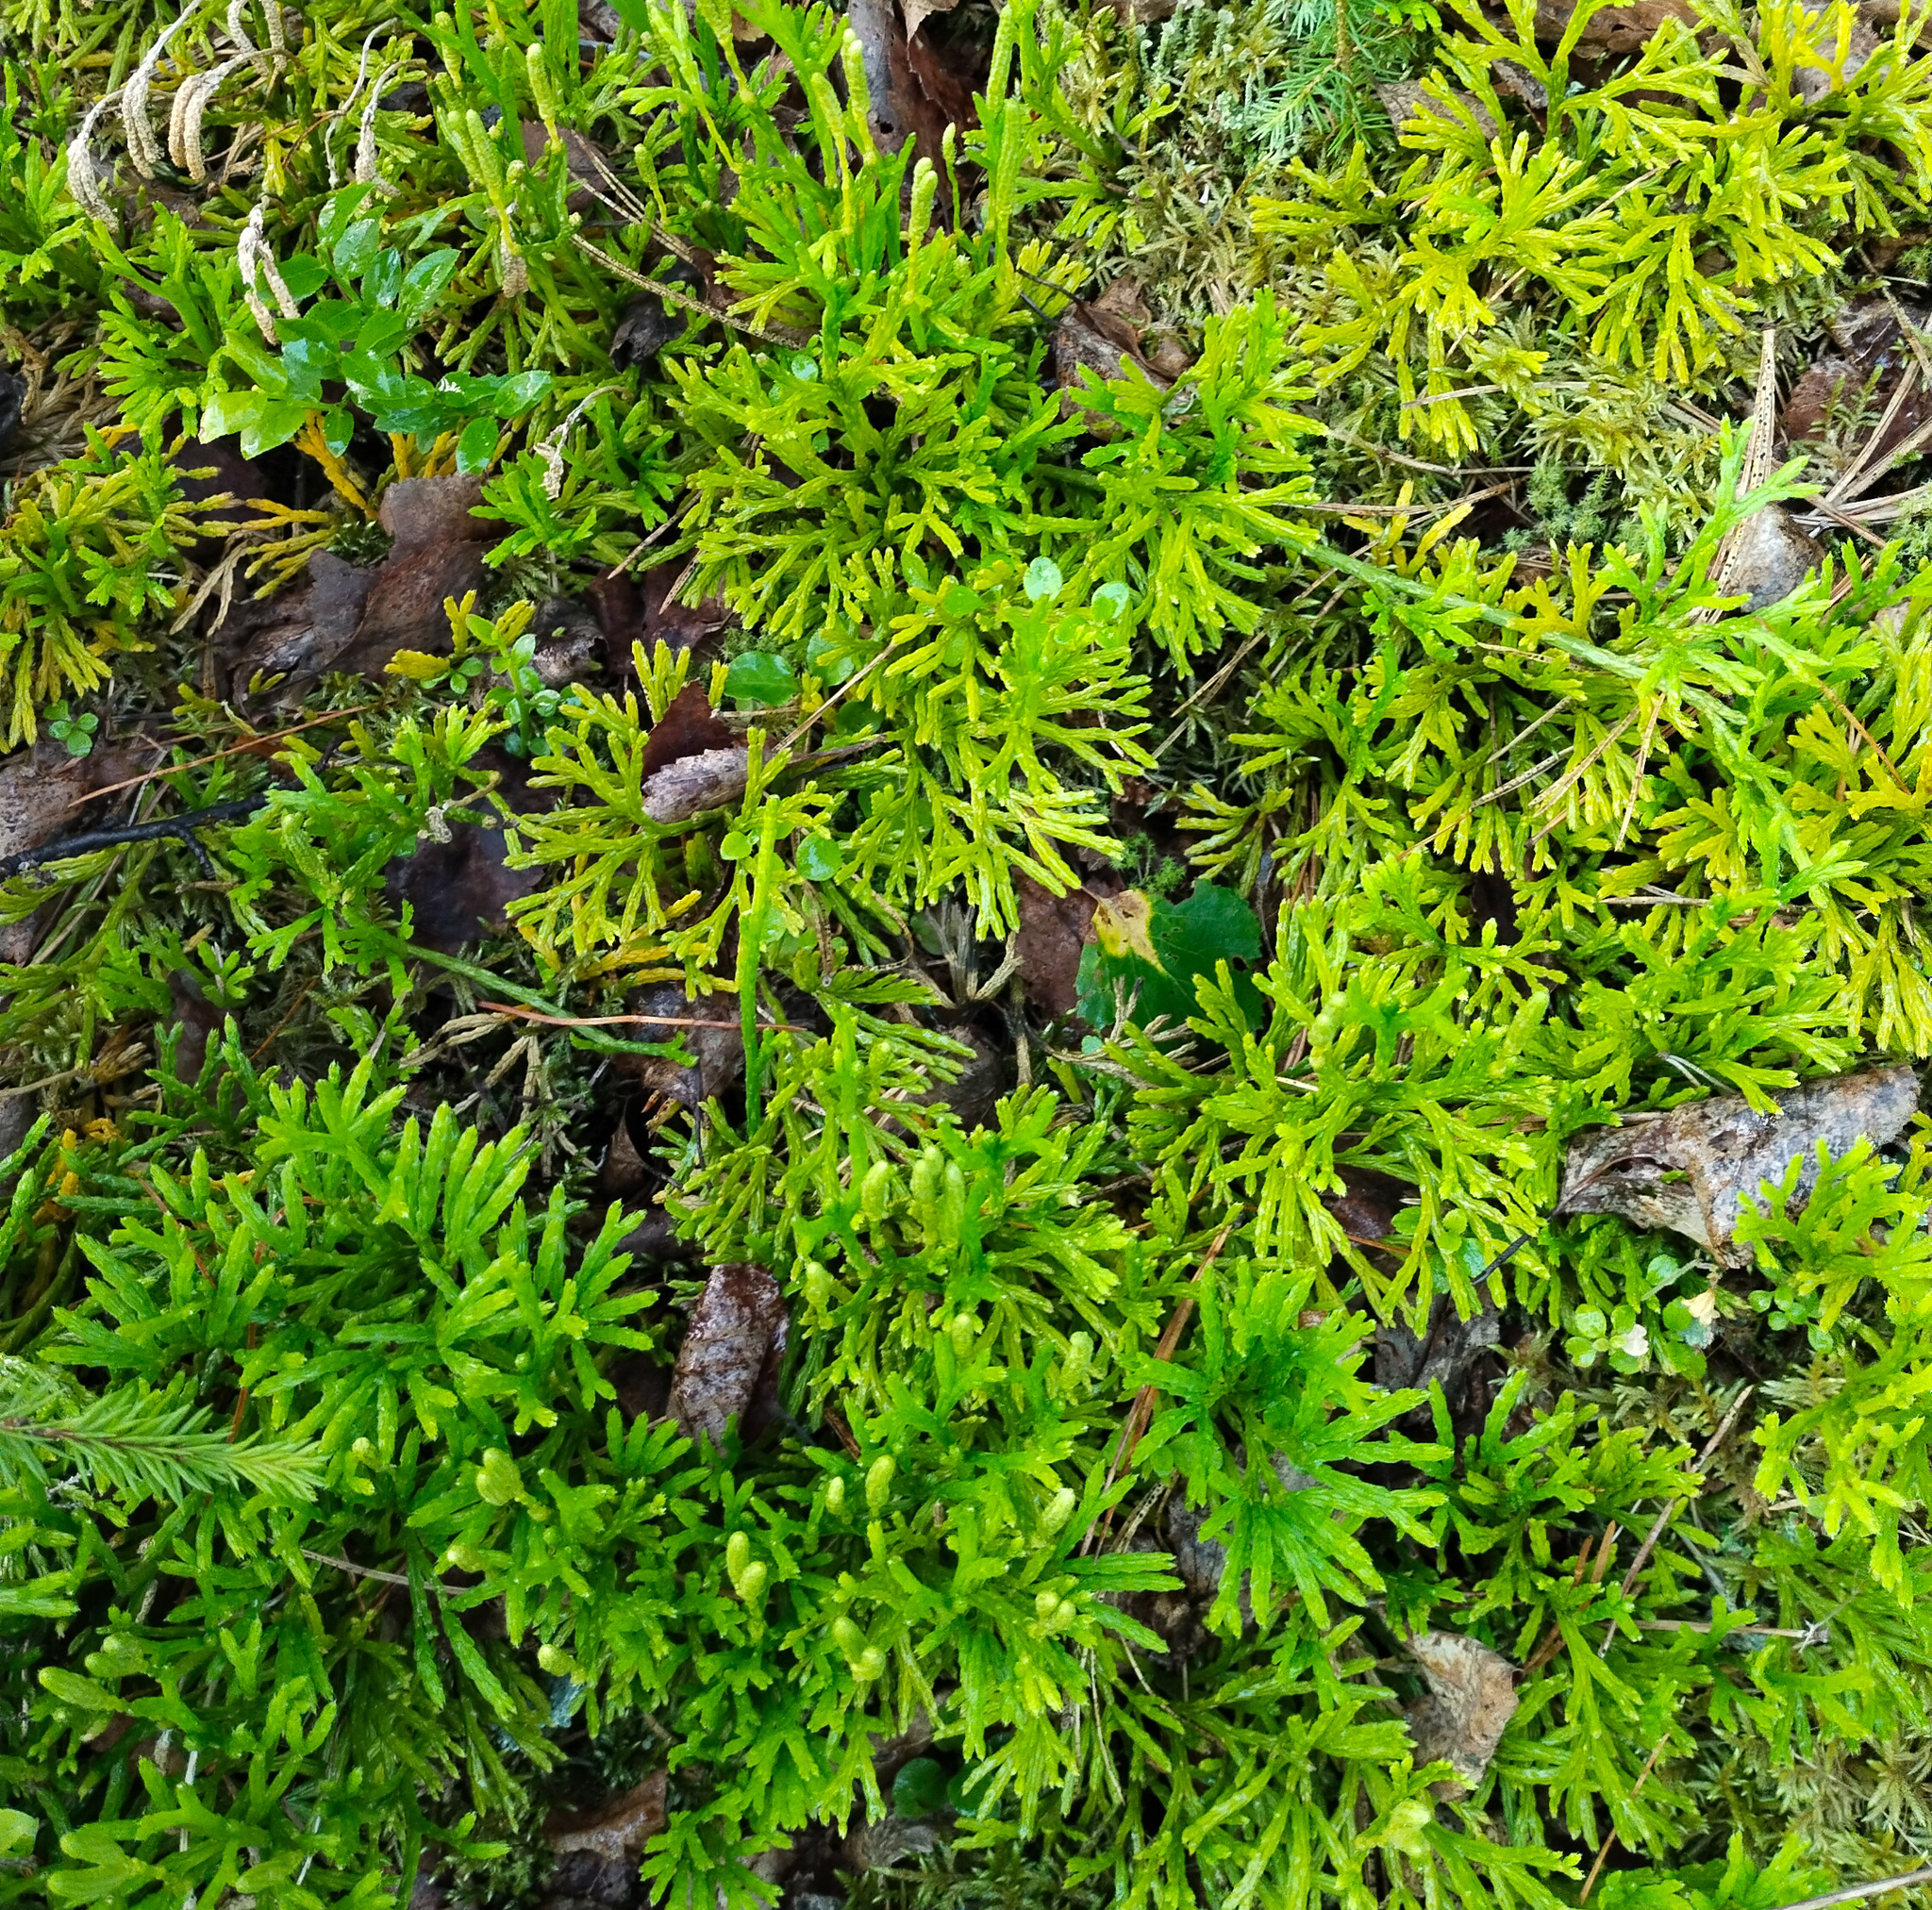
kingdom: Plantae
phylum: Tracheophyta
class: Lycopodiopsida
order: Lycopodiales
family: Lycopodiaceae
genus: Diphasiastrum
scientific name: Diphasiastrum complanatum
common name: Northern running-pine
